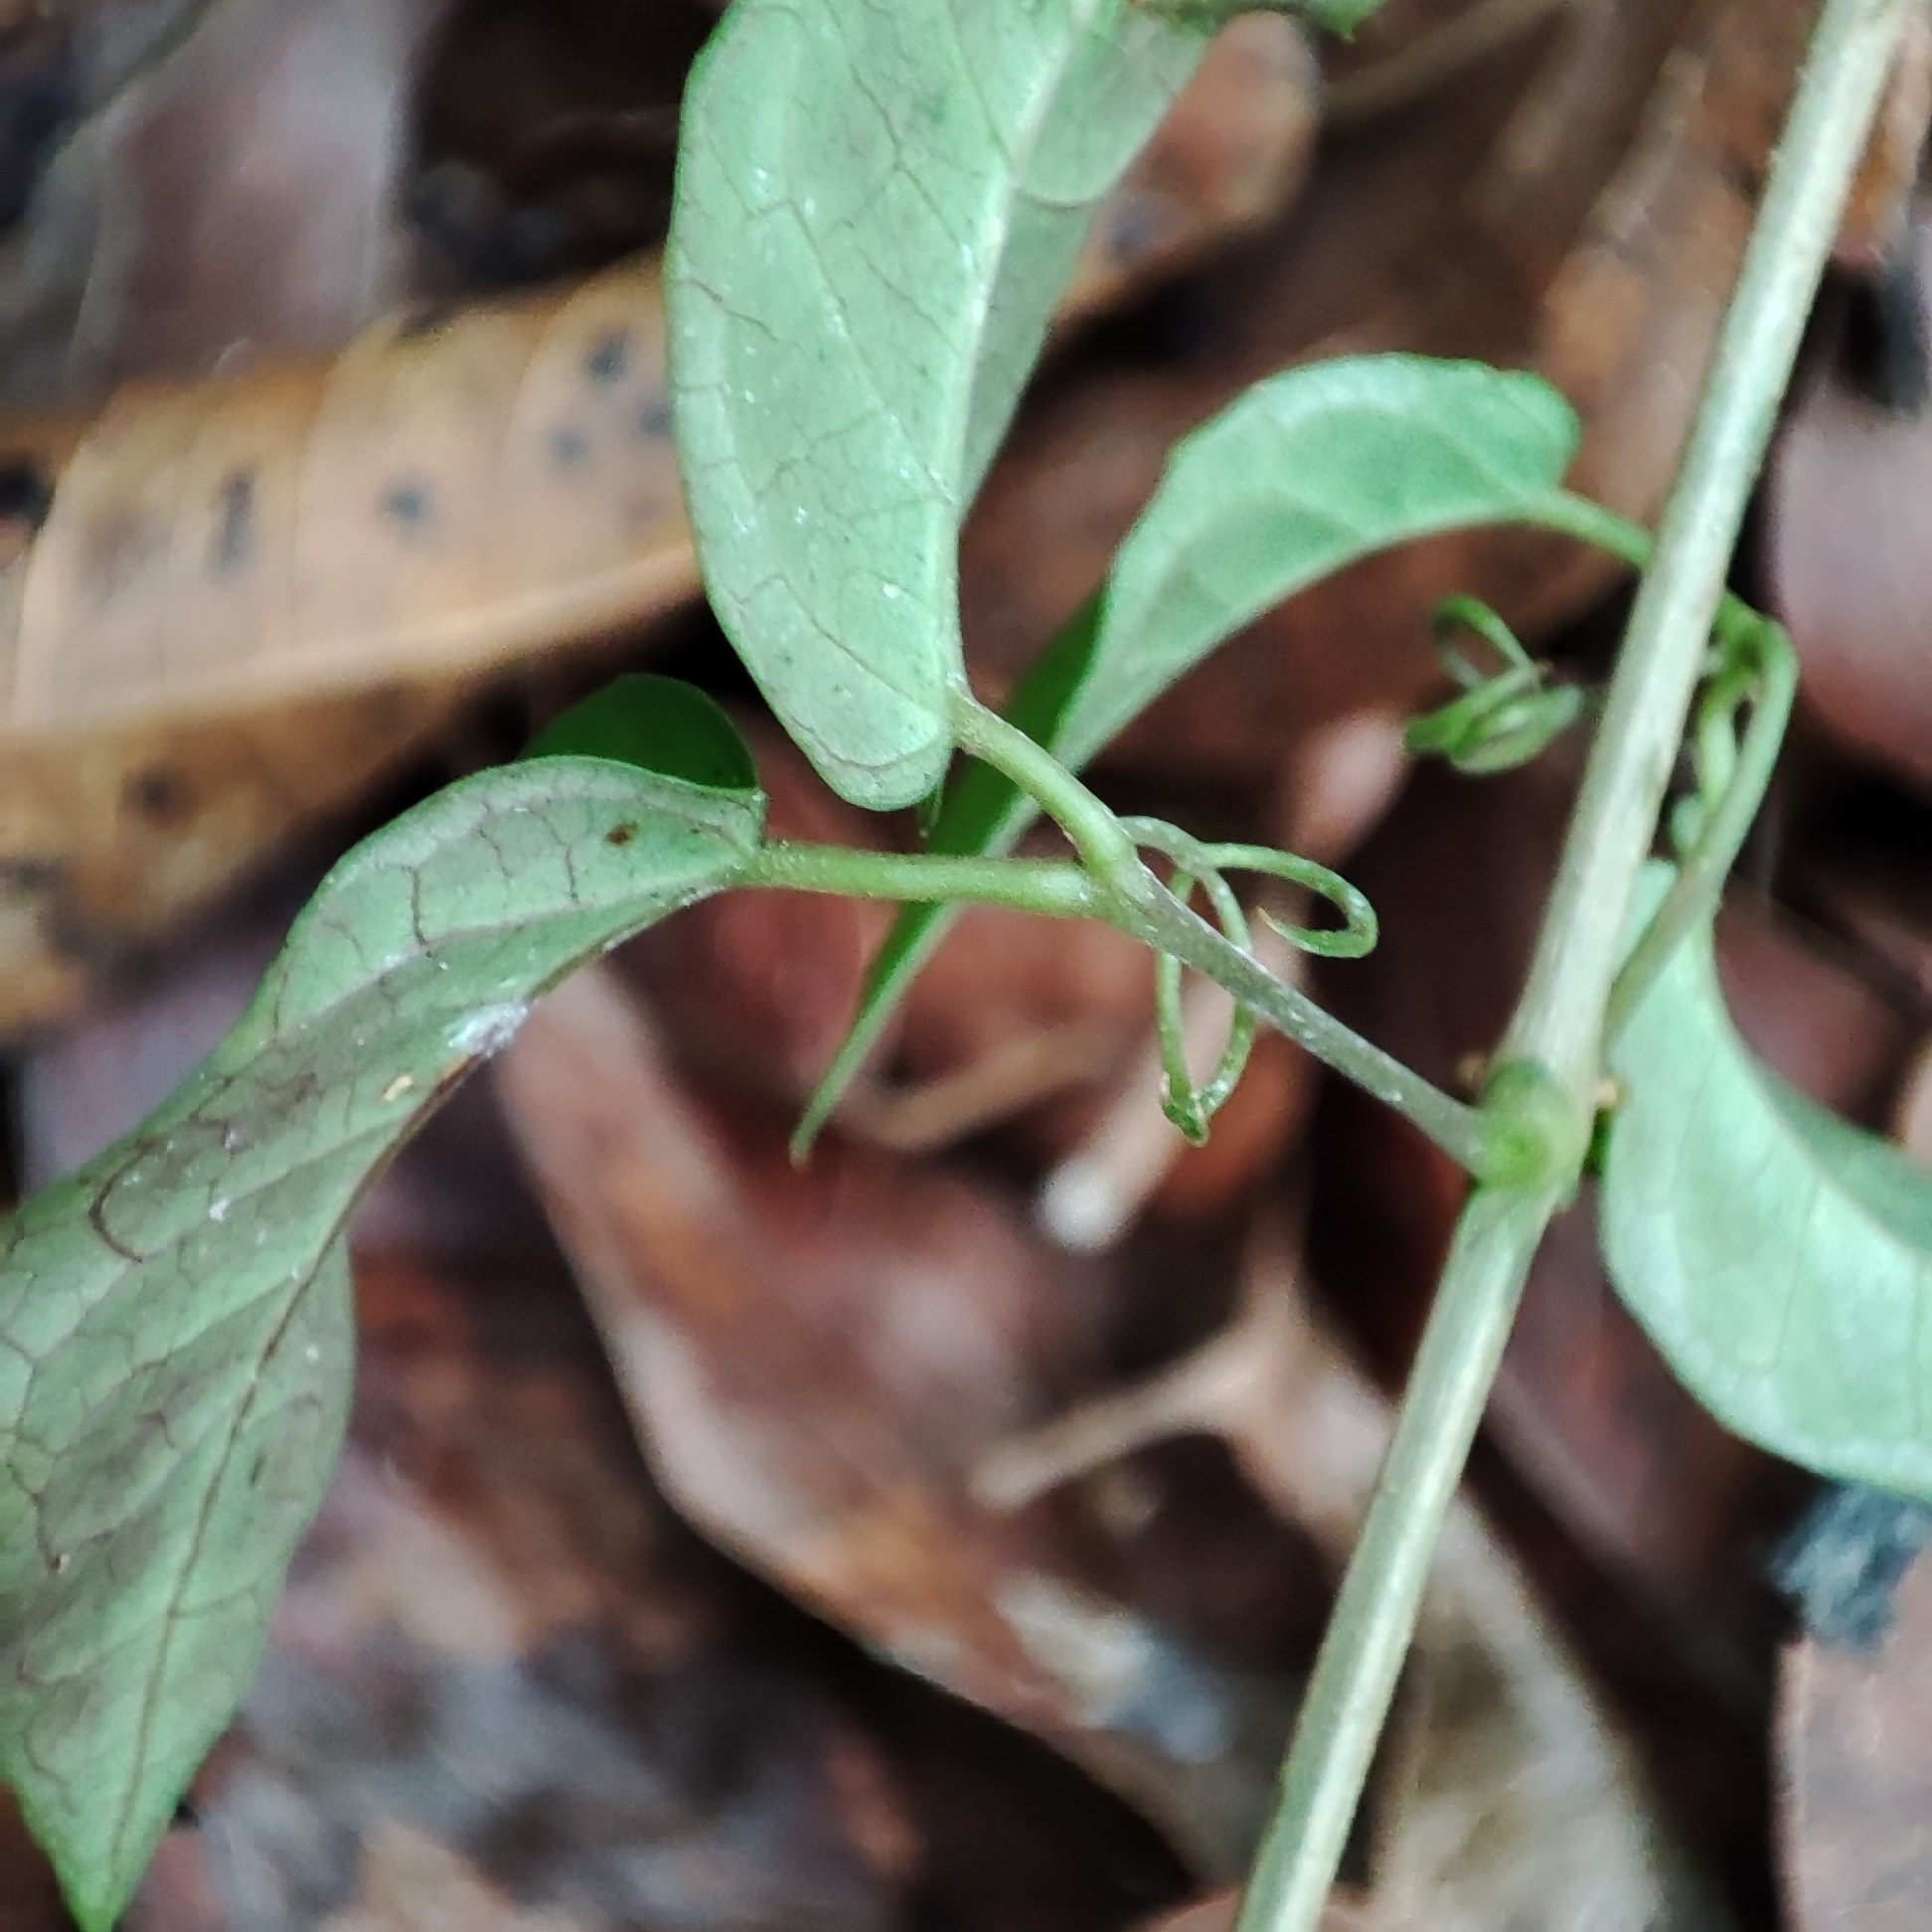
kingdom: Plantae
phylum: Tracheophyta
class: Magnoliopsida
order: Lamiales
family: Bignoniaceae
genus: Dolichandra
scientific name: Dolichandra unguis-cati
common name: Catclaw vine
